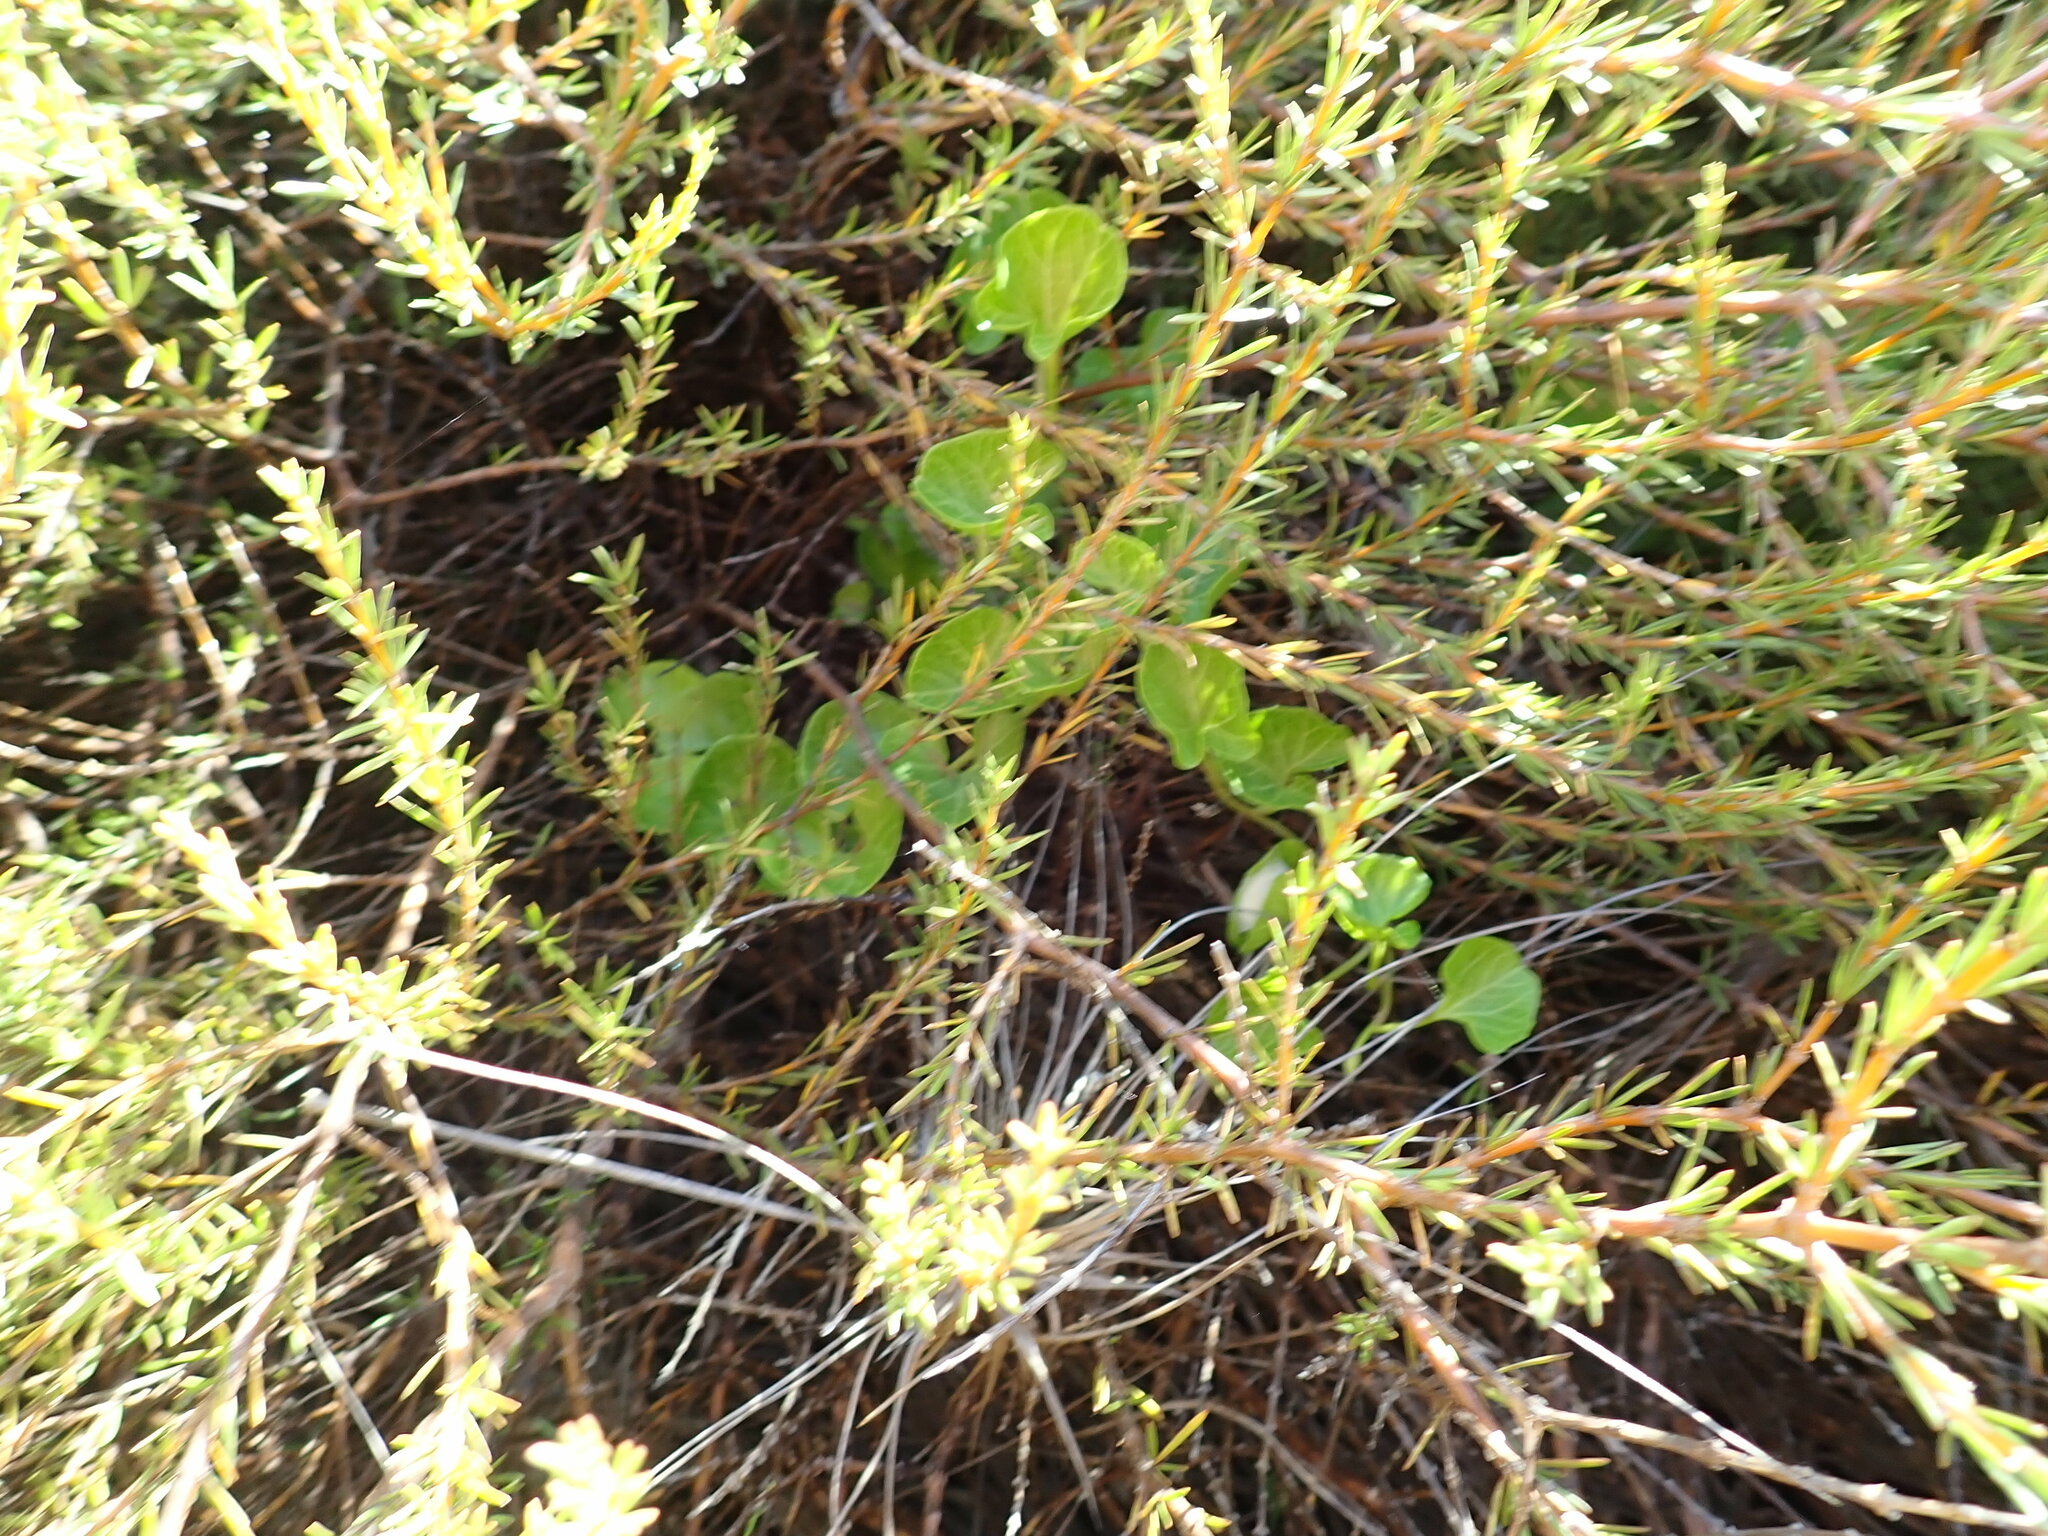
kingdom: Plantae
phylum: Tracheophyta
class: Magnoliopsida
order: Solanales
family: Convolvulaceae
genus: Calystegia
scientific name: Calystegia soldanella
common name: Sea bindweed
